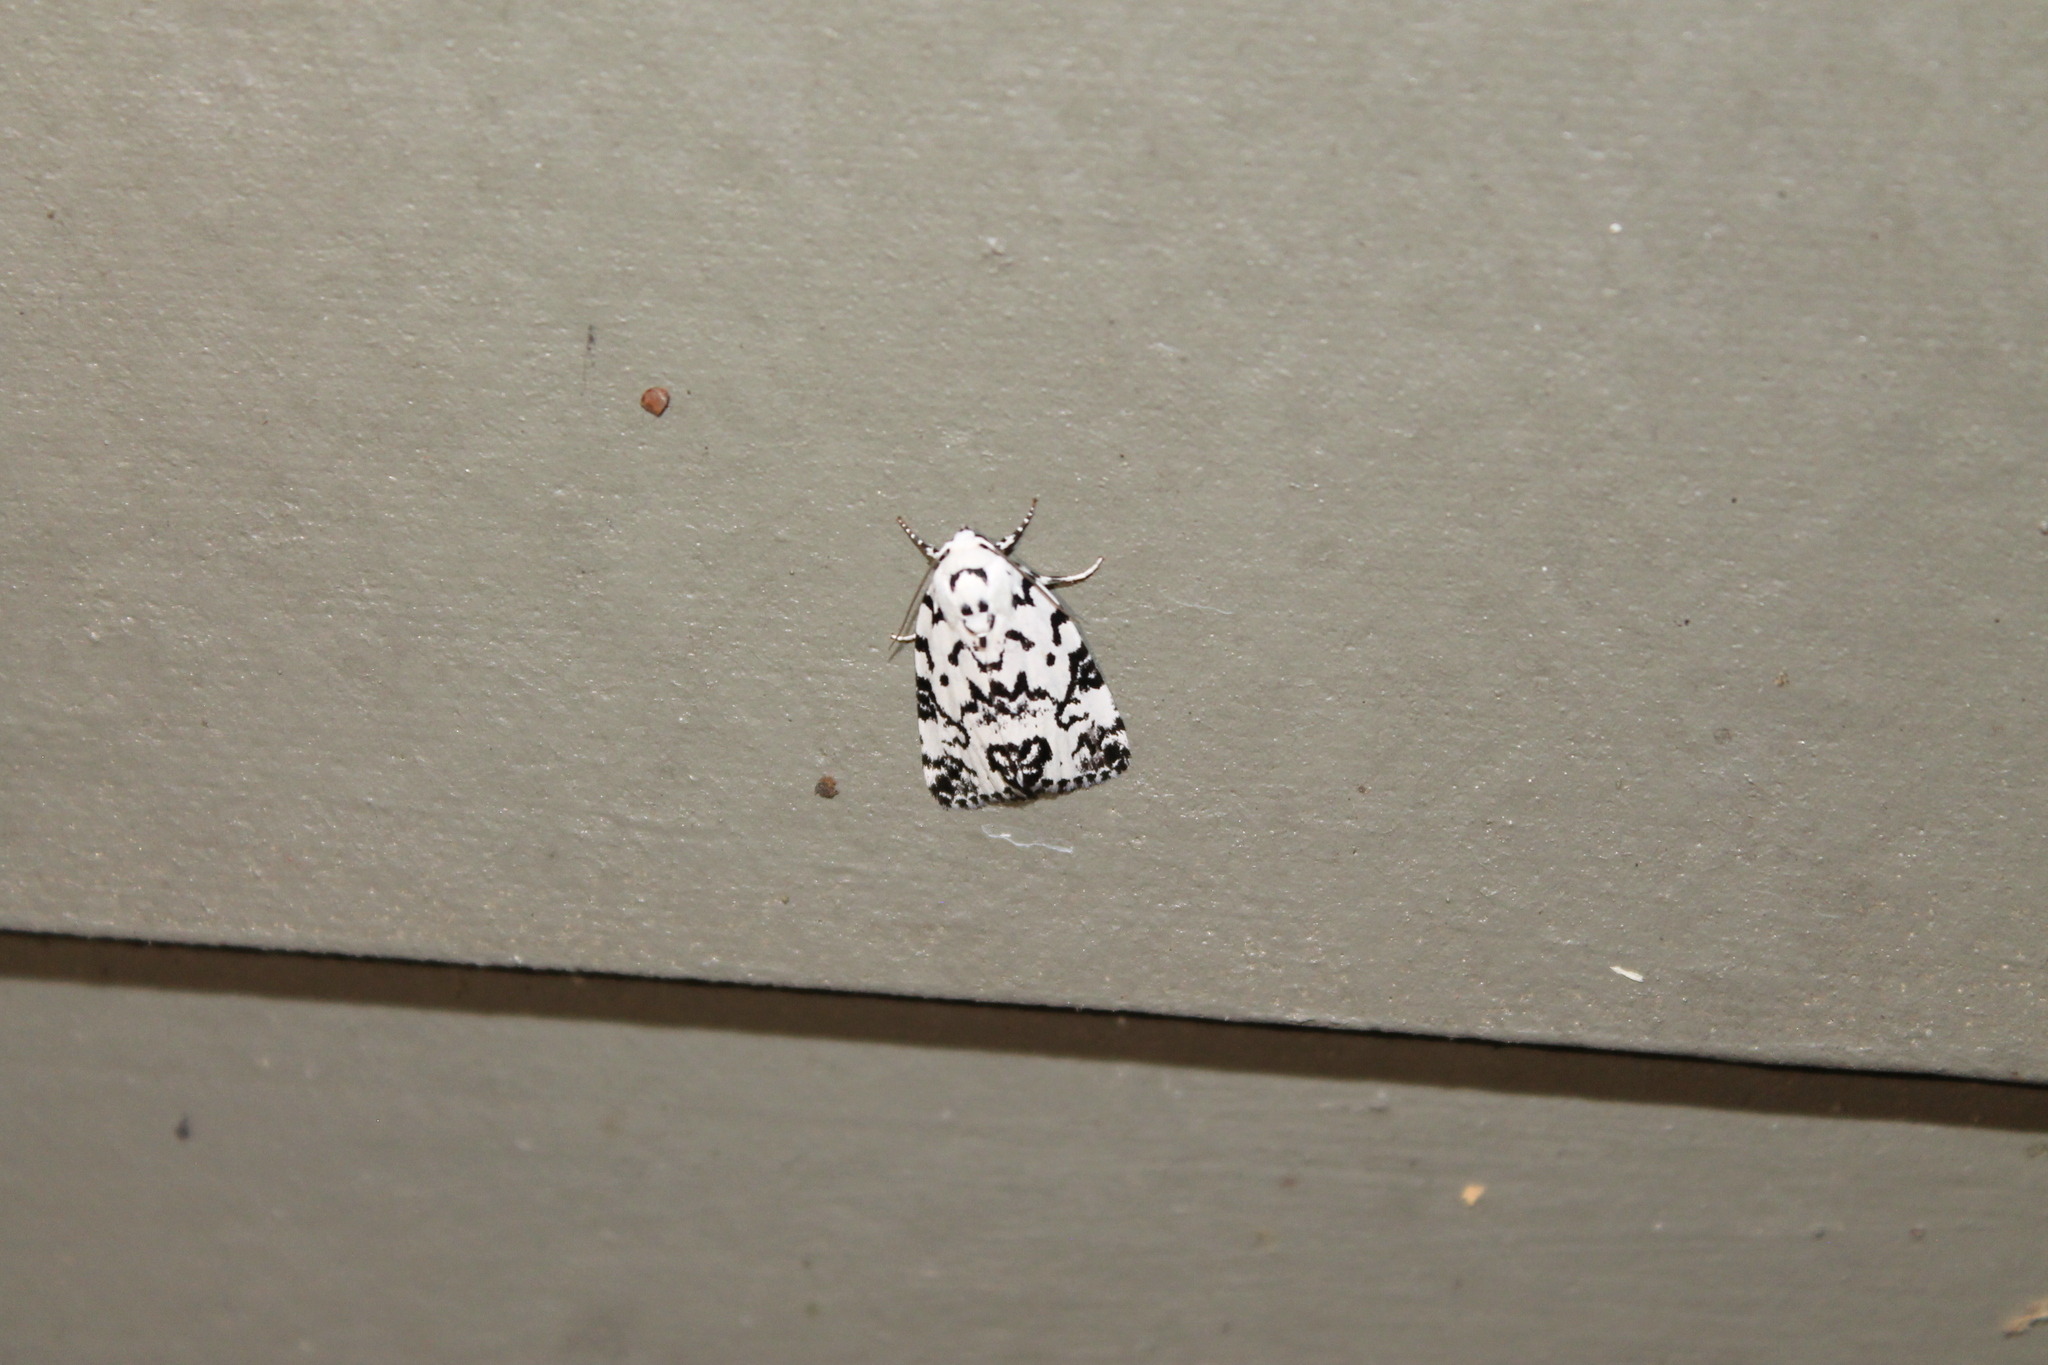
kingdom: Animalia
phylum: Arthropoda
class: Insecta
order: Lepidoptera
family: Noctuidae
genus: Polygrammate
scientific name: Polygrammate hebraeicum
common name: Hebrew moth
